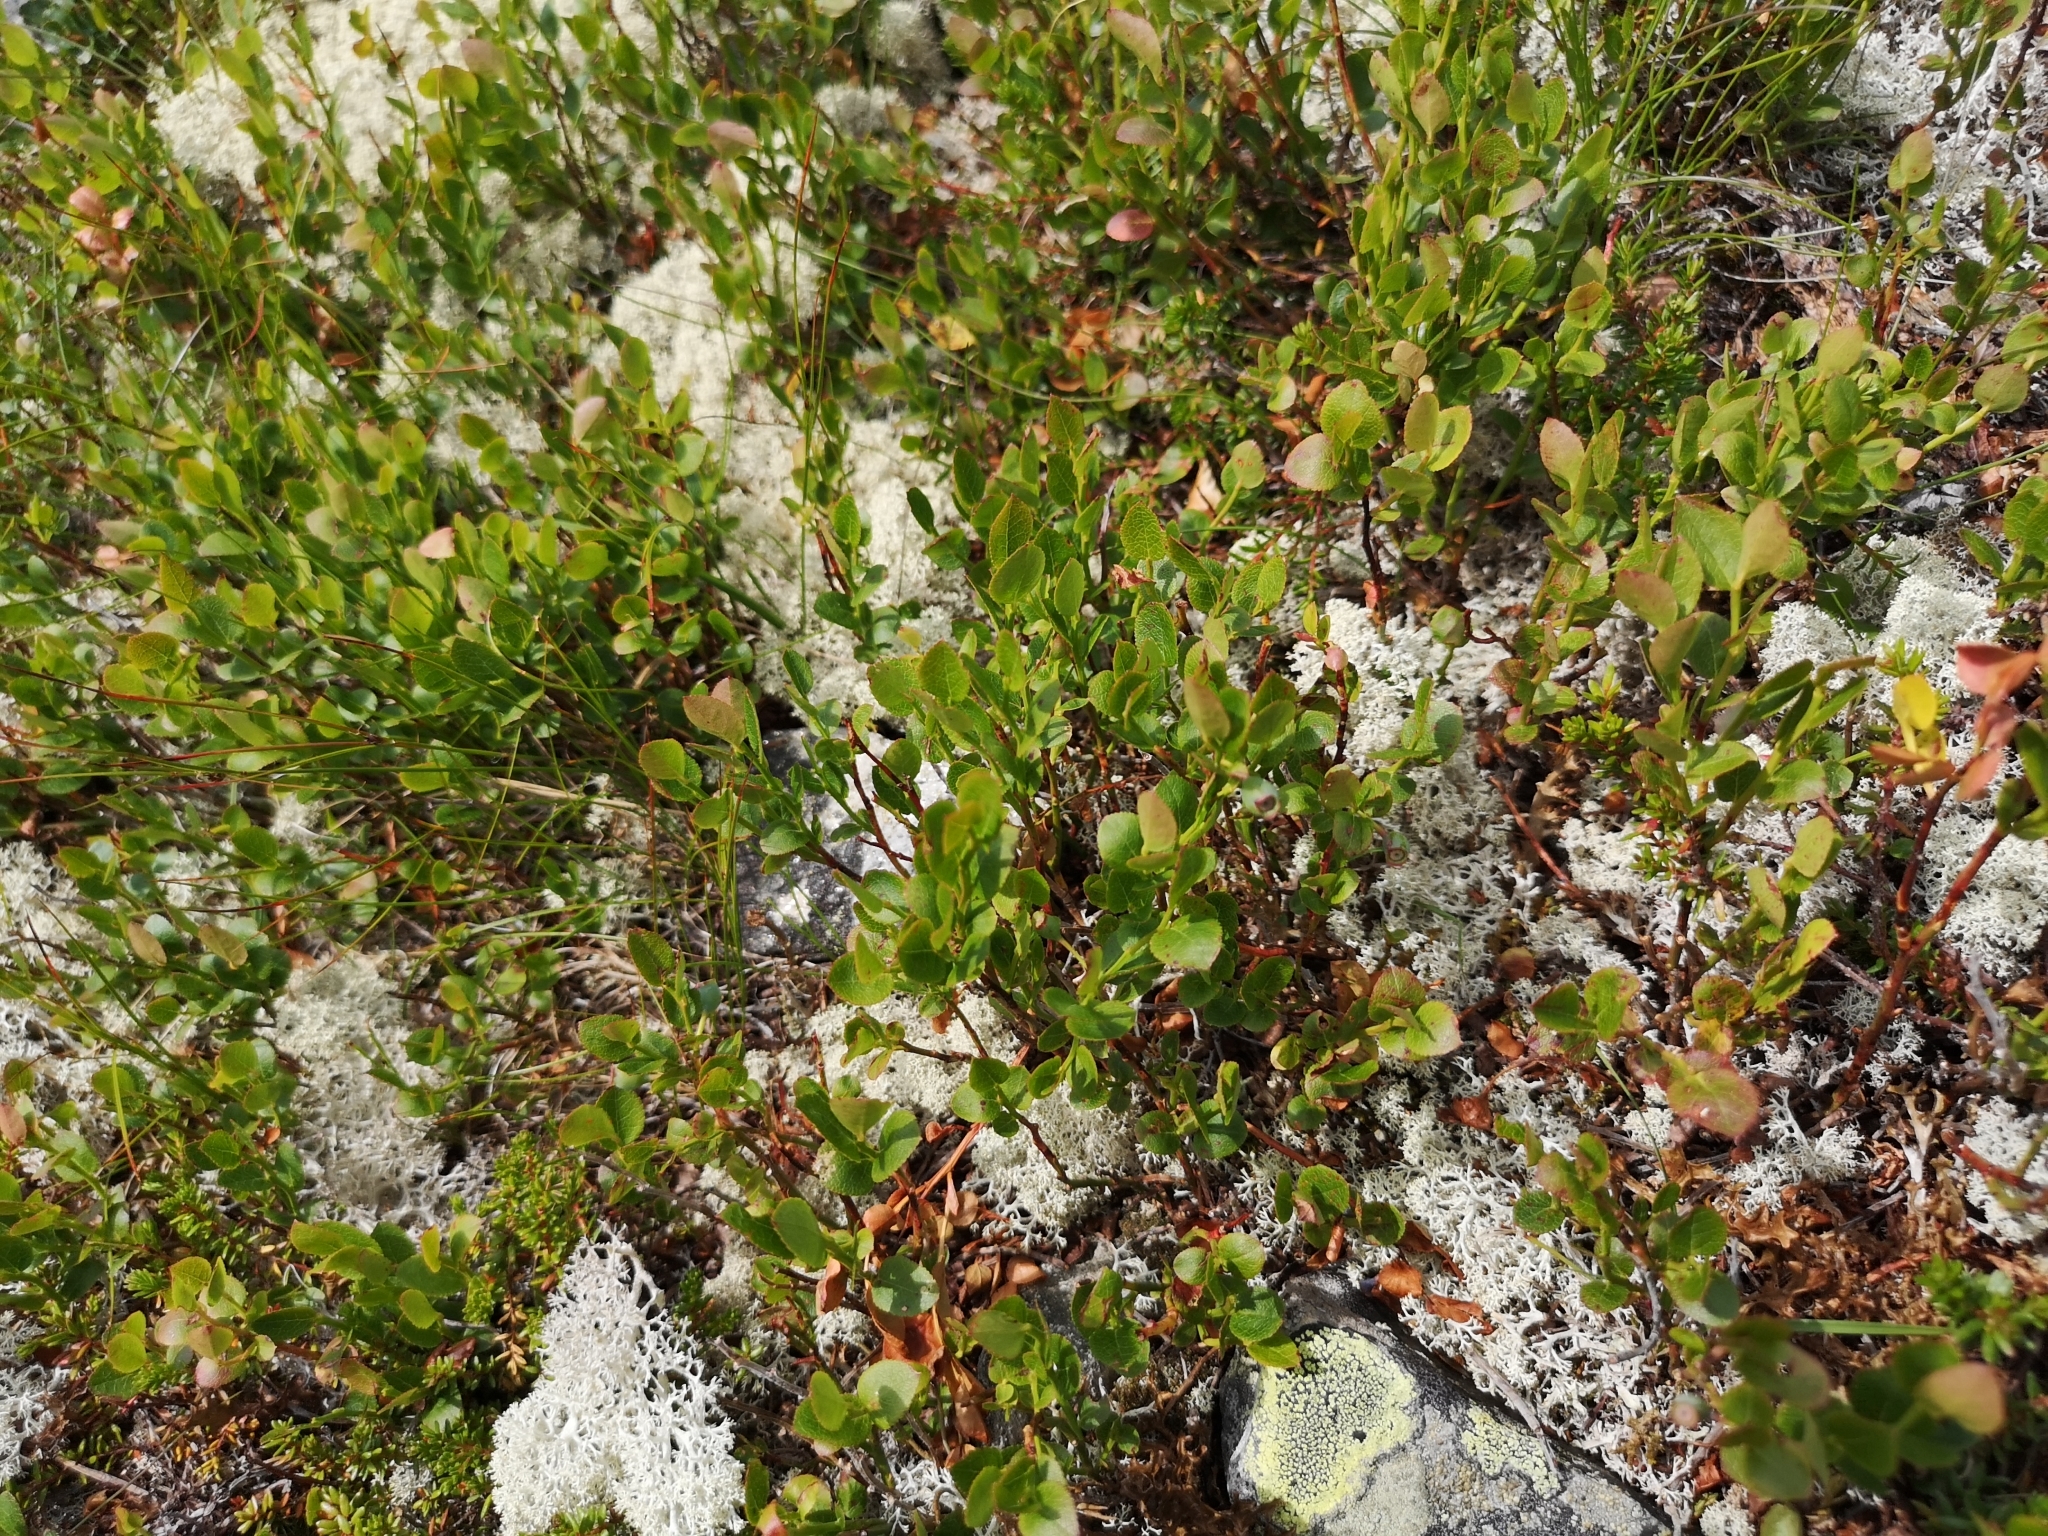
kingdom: Plantae
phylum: Tracheophyta
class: Magnoliopsida
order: Ericales
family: Ericaceae
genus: Vaccinium
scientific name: Vaccinium myrtillus
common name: Bilberry
